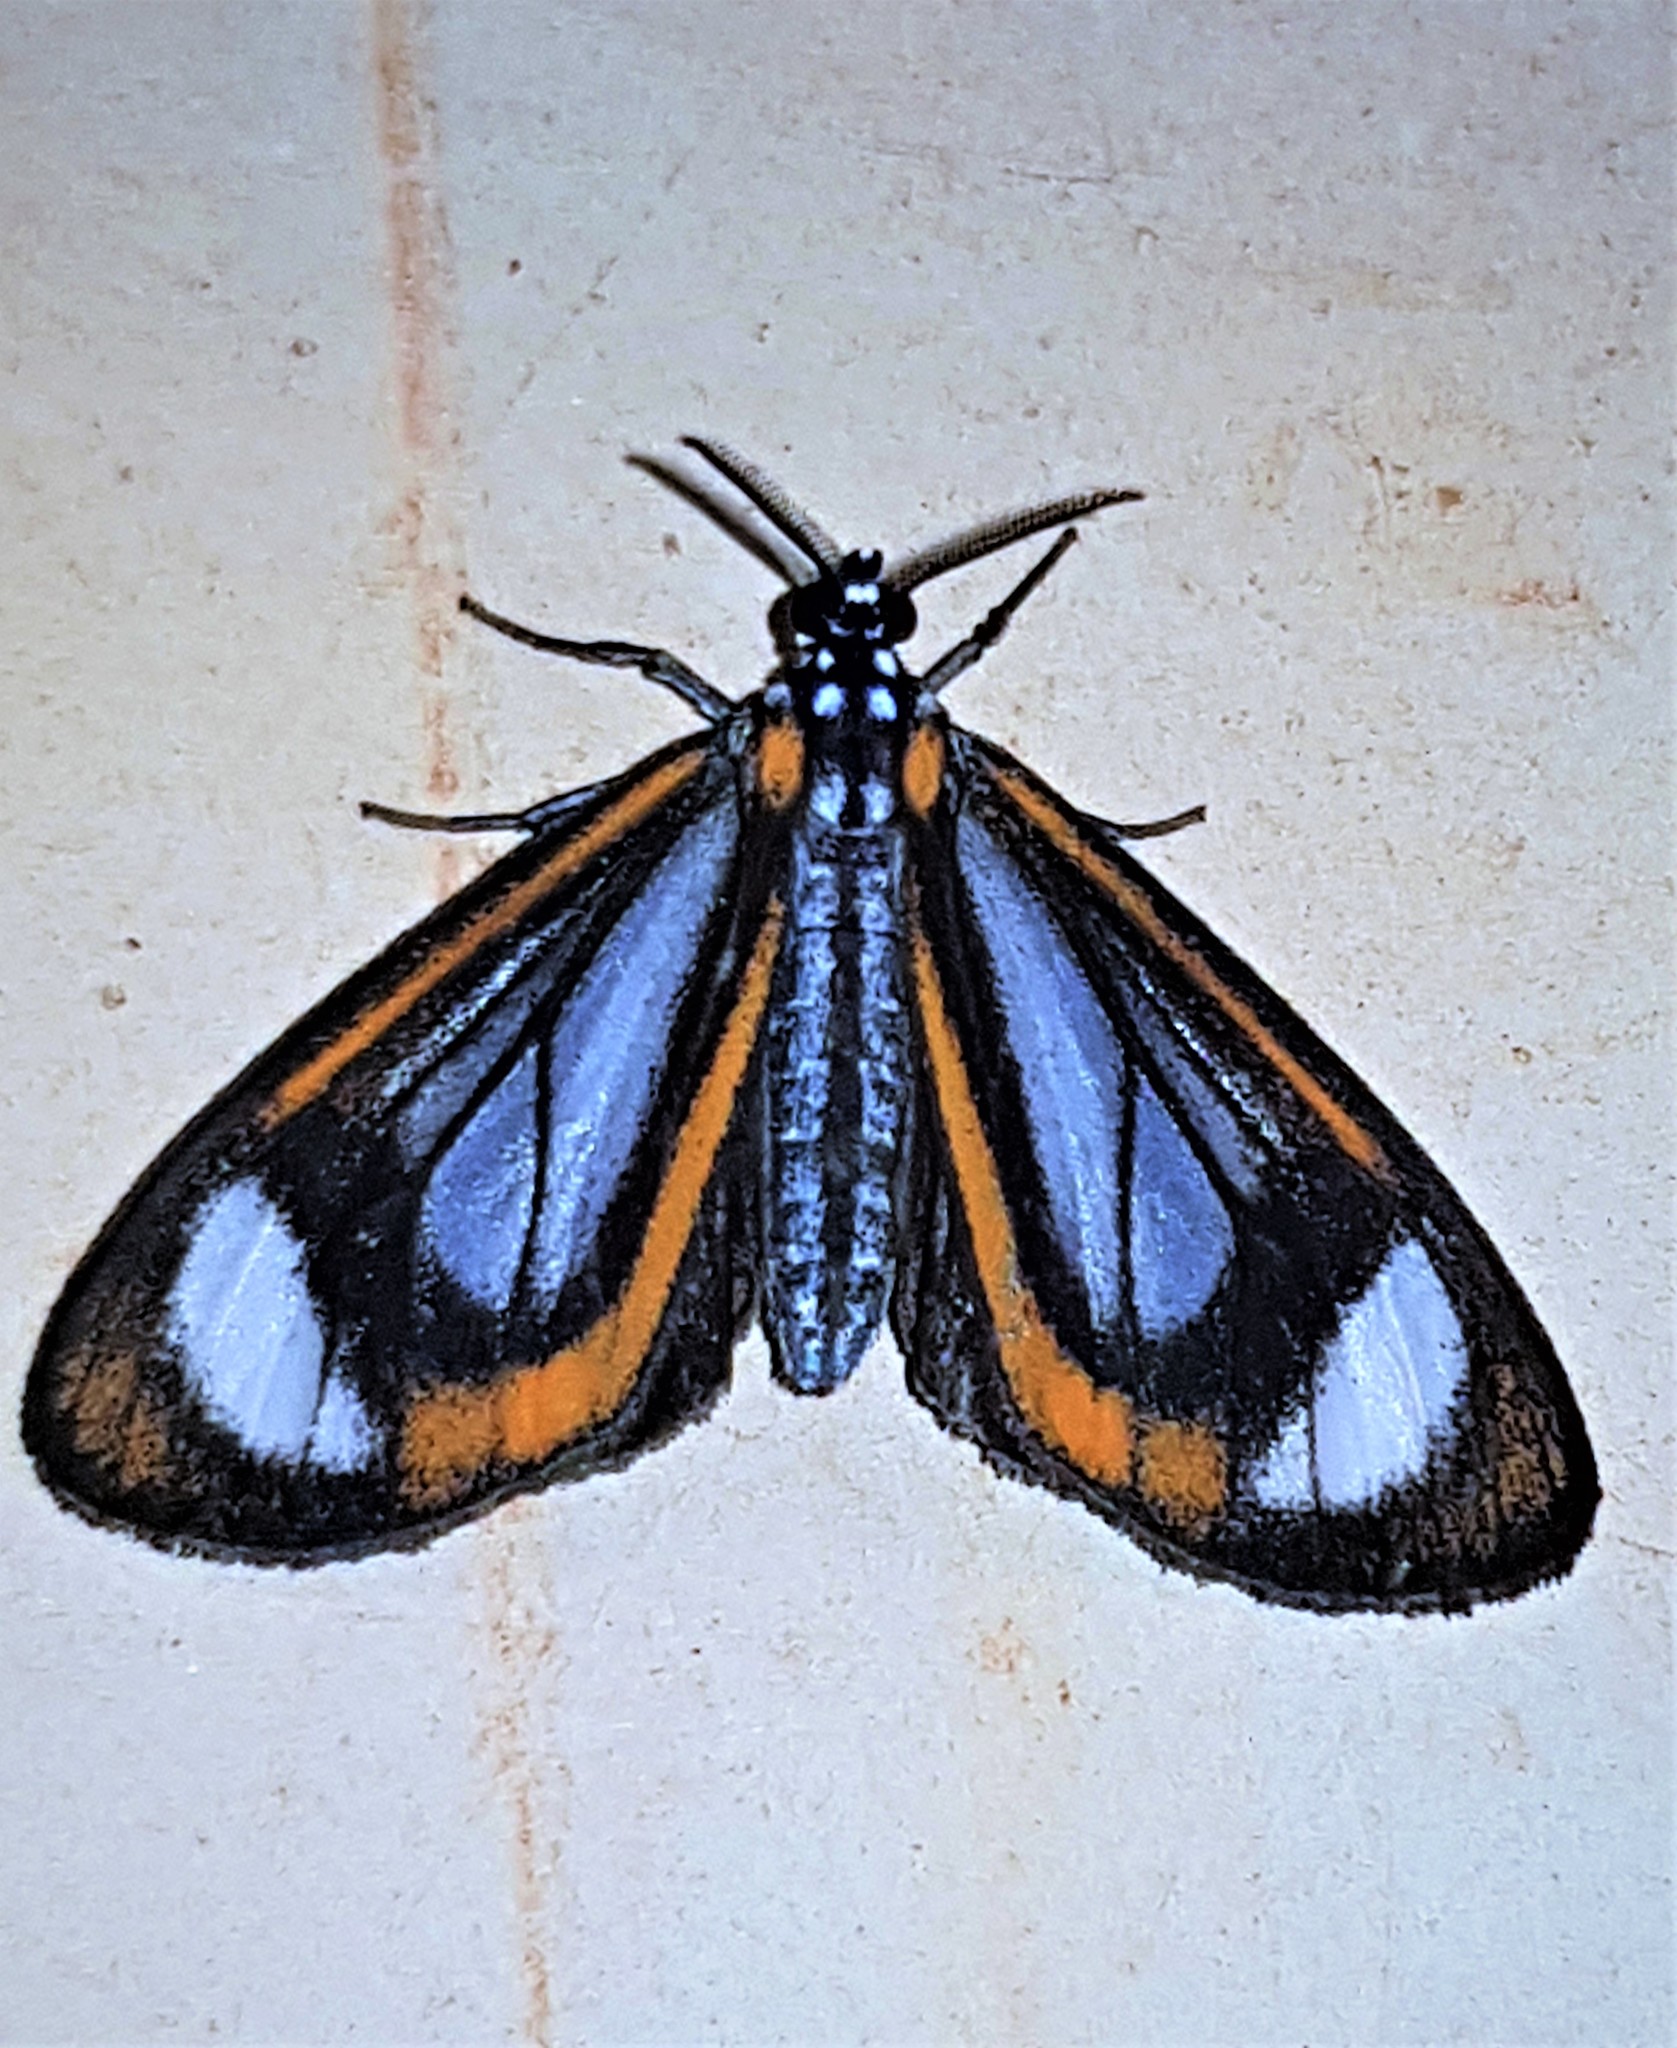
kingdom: Animalia
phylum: Arthropoda
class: Insecta
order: Lepidoptera
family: Erebidae
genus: Hyalurga
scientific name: Hyalurga leucophlebia
